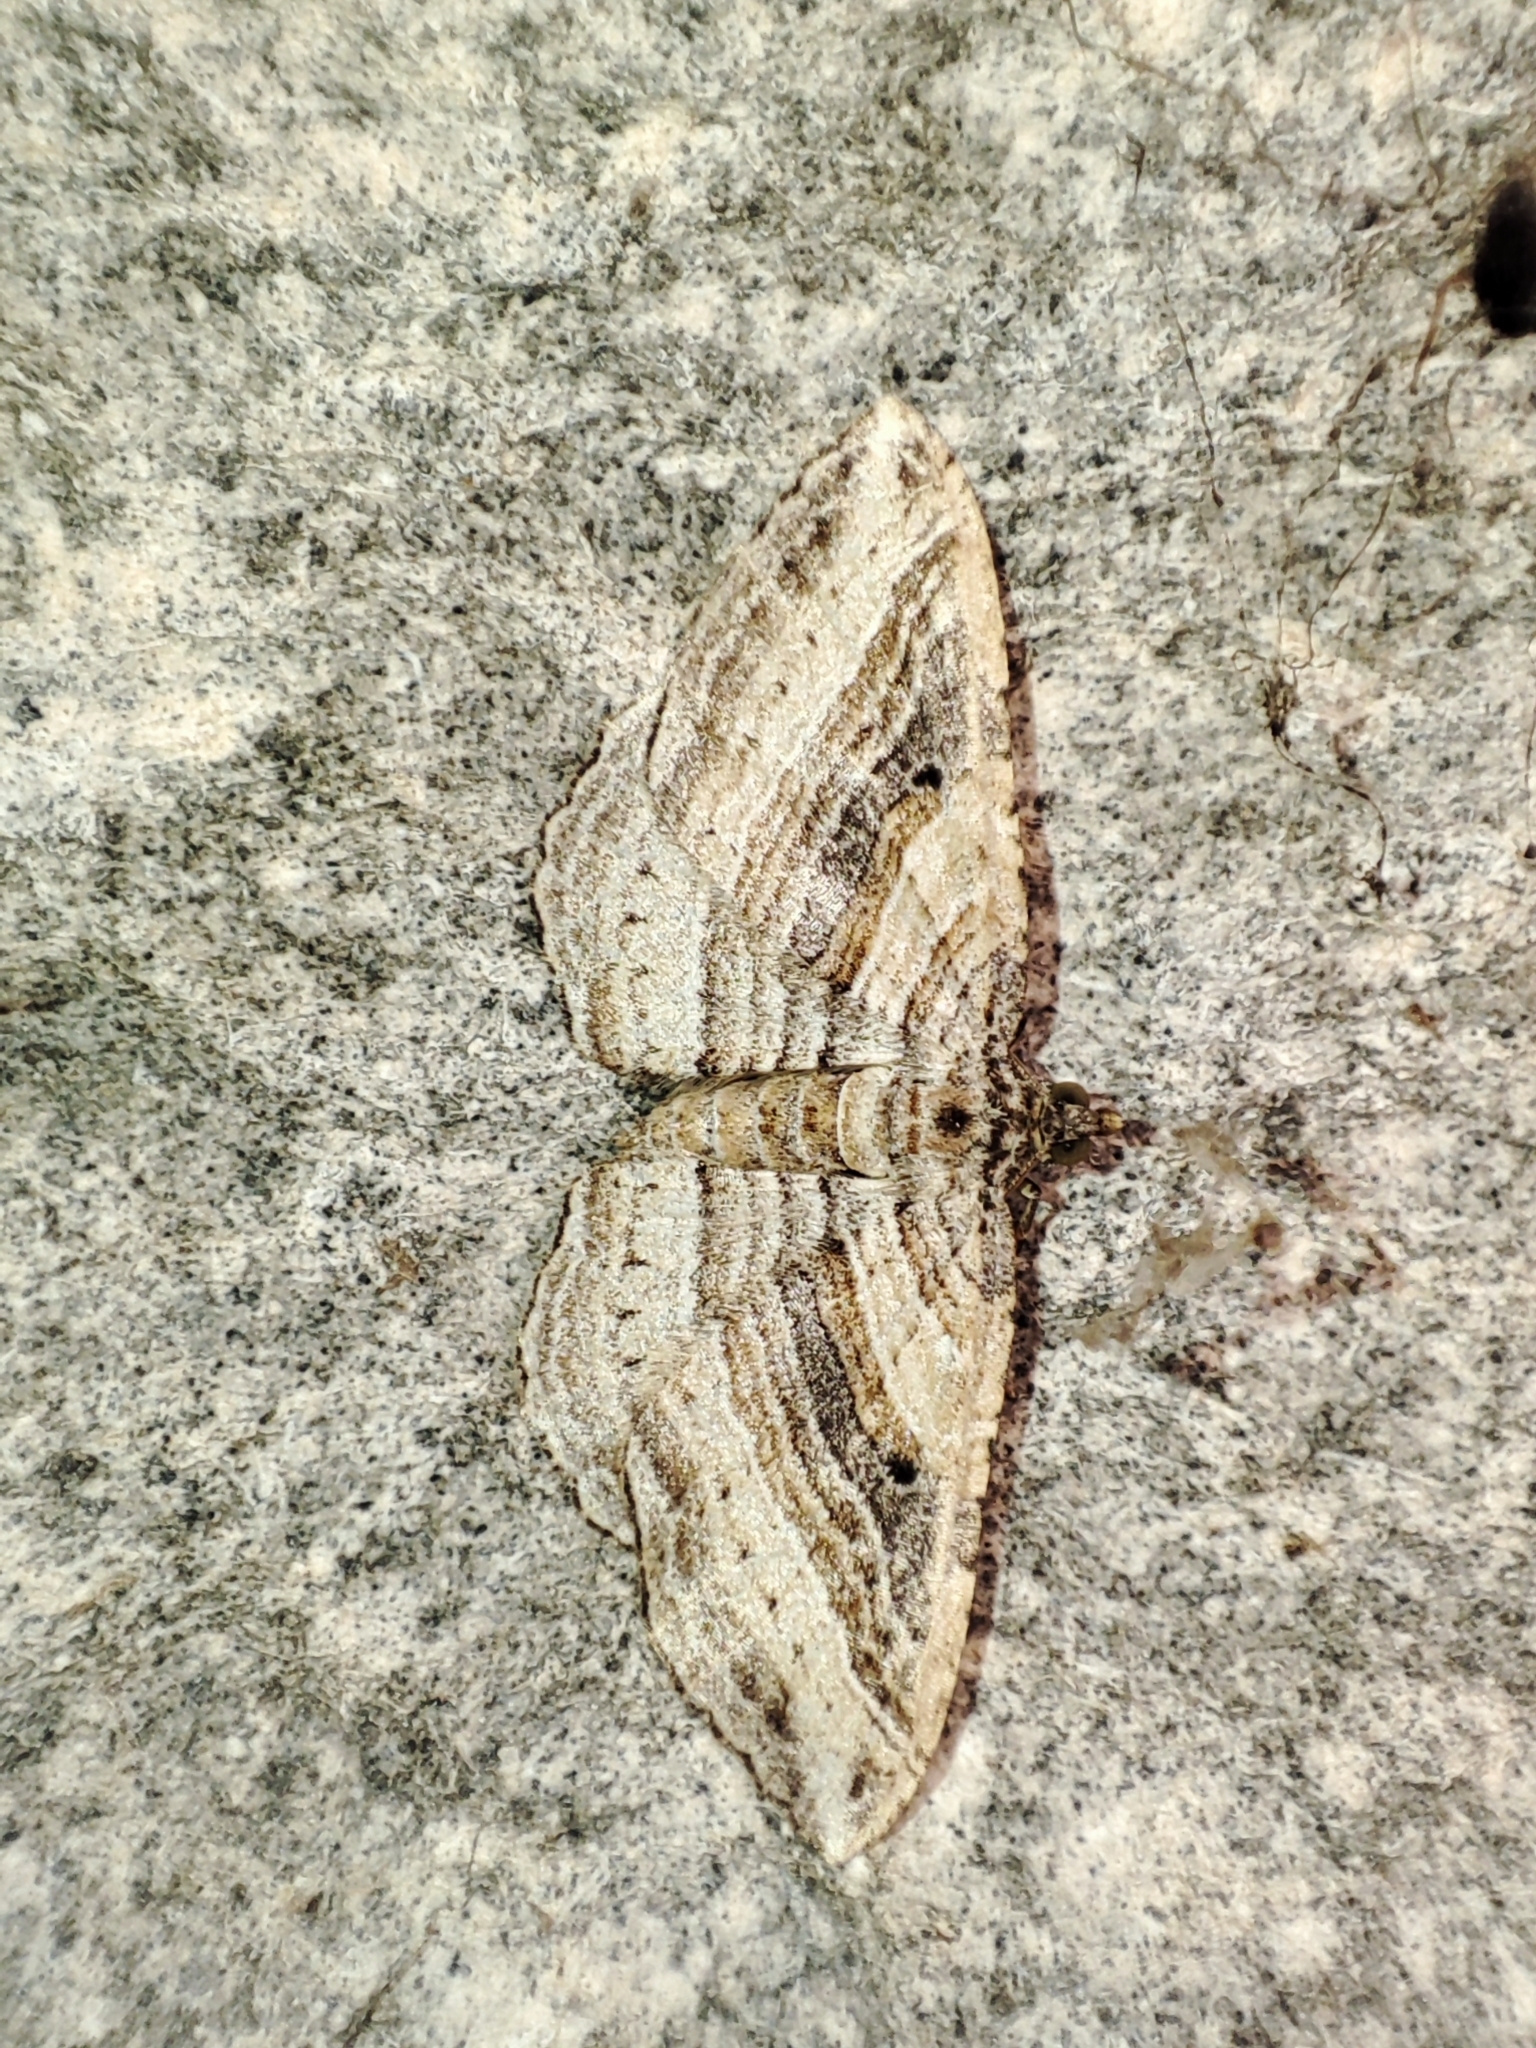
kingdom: Animalia
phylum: Arthropoda
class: Insecta
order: Lepidoptera
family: Geometridae
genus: Costaconvexa
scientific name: Costaconvexa polygrammata
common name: Many-lined
